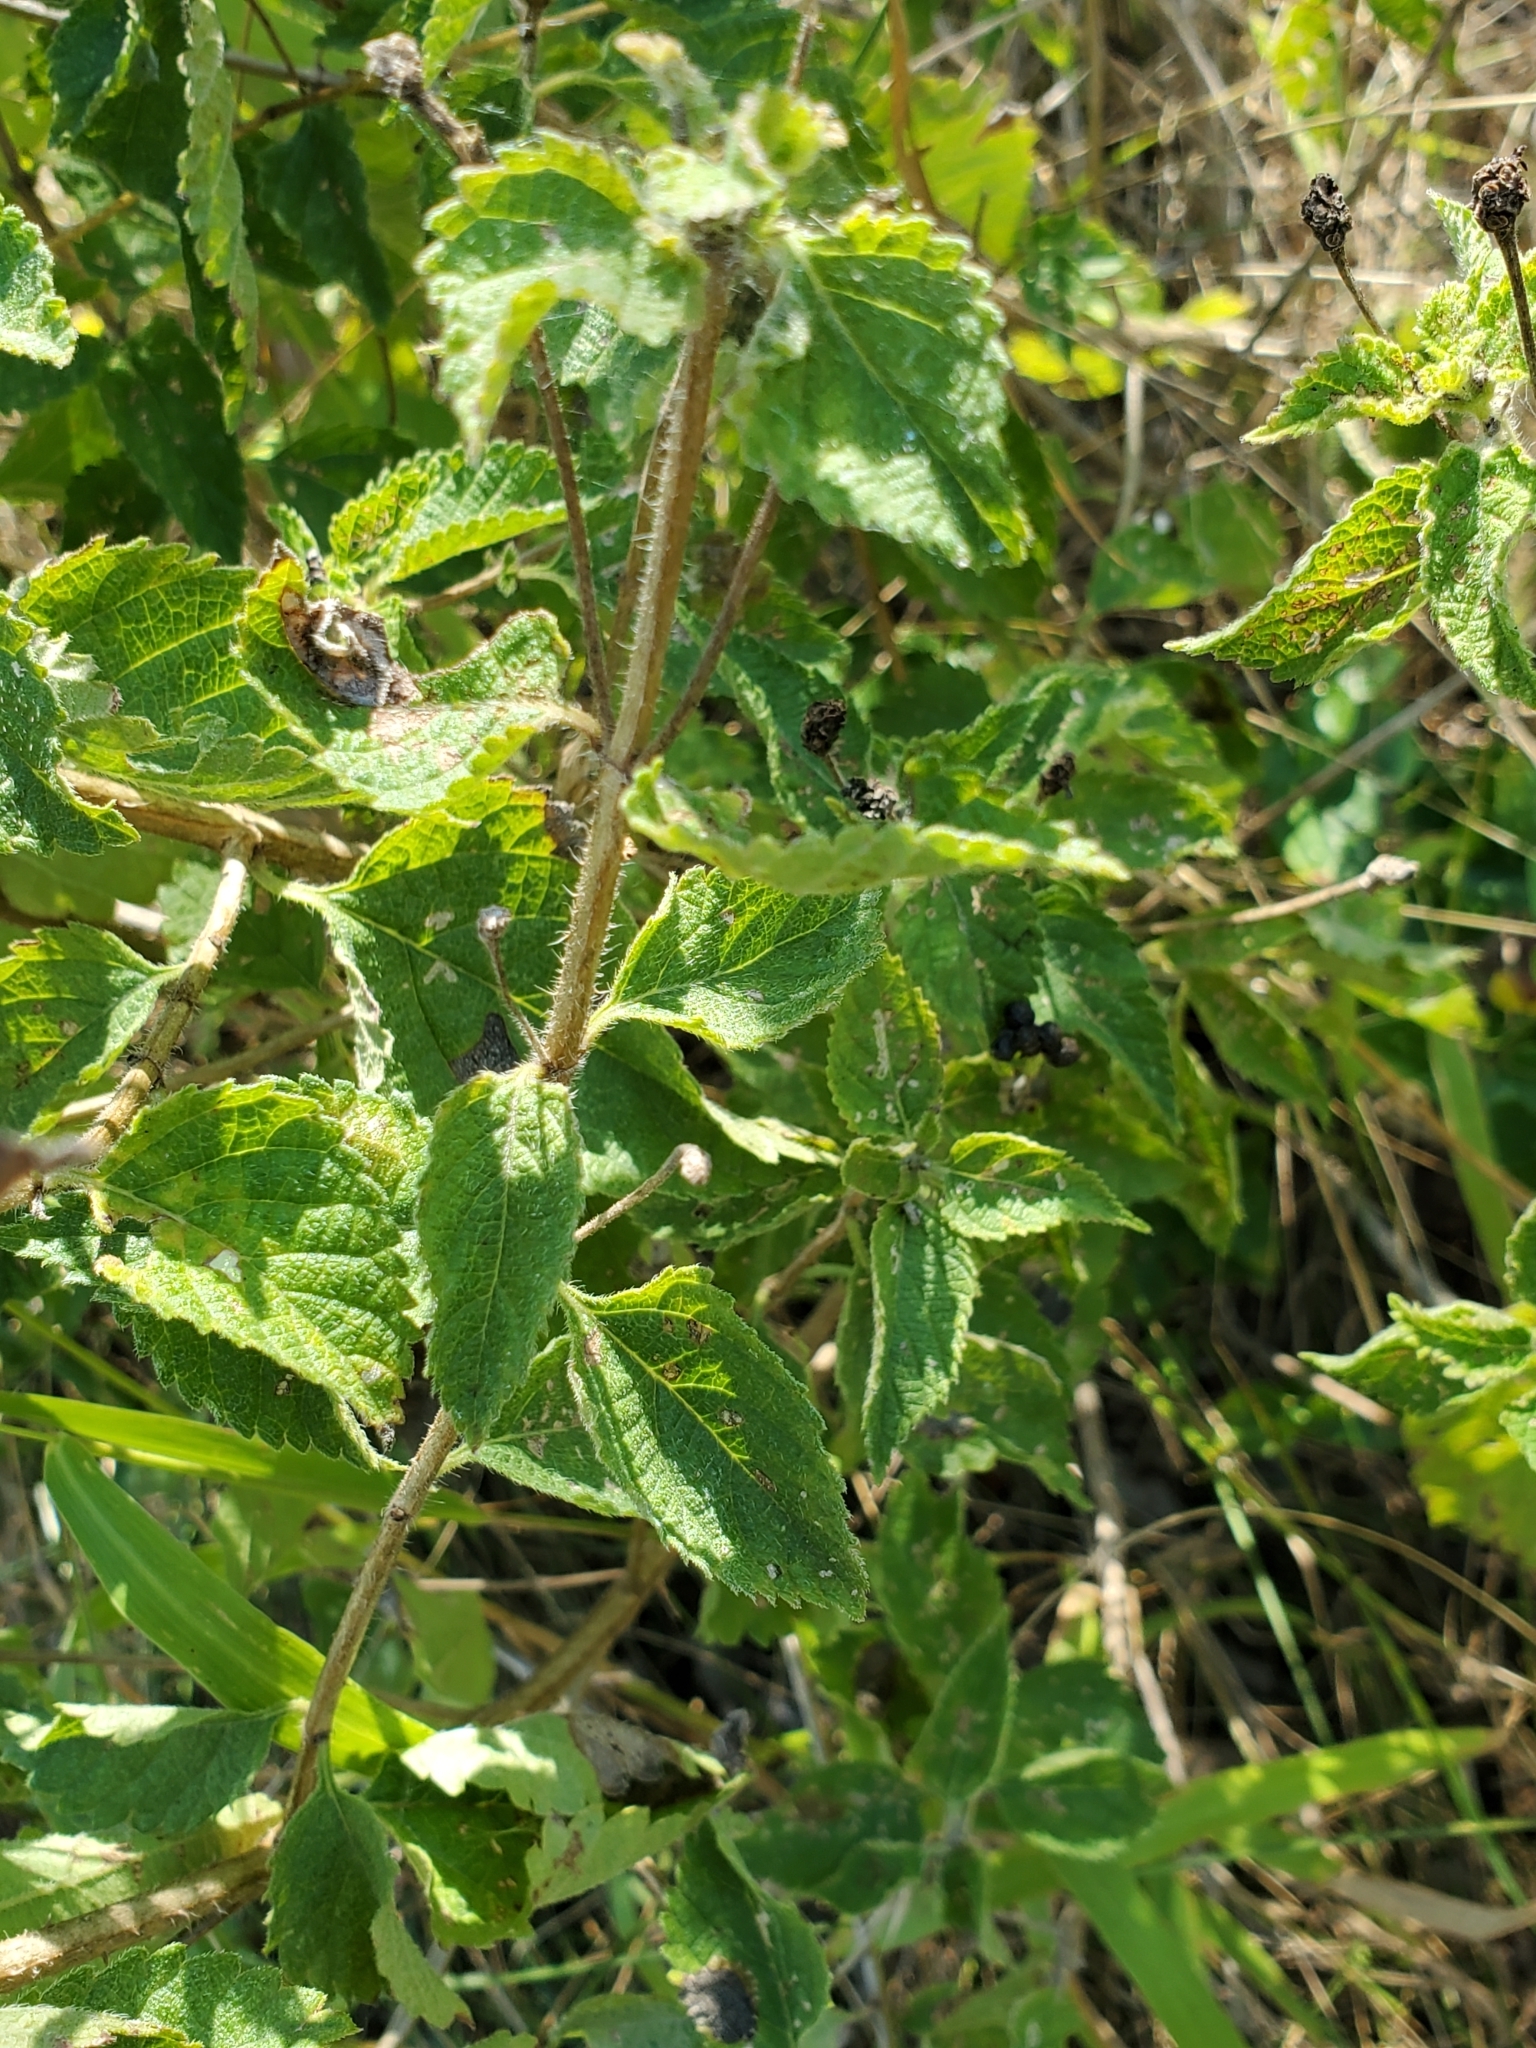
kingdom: Plantae
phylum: Tracheophyta
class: Magnoliopsida
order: Lamiales
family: Verbenaceae
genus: Lantana
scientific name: Lantana urticoides
